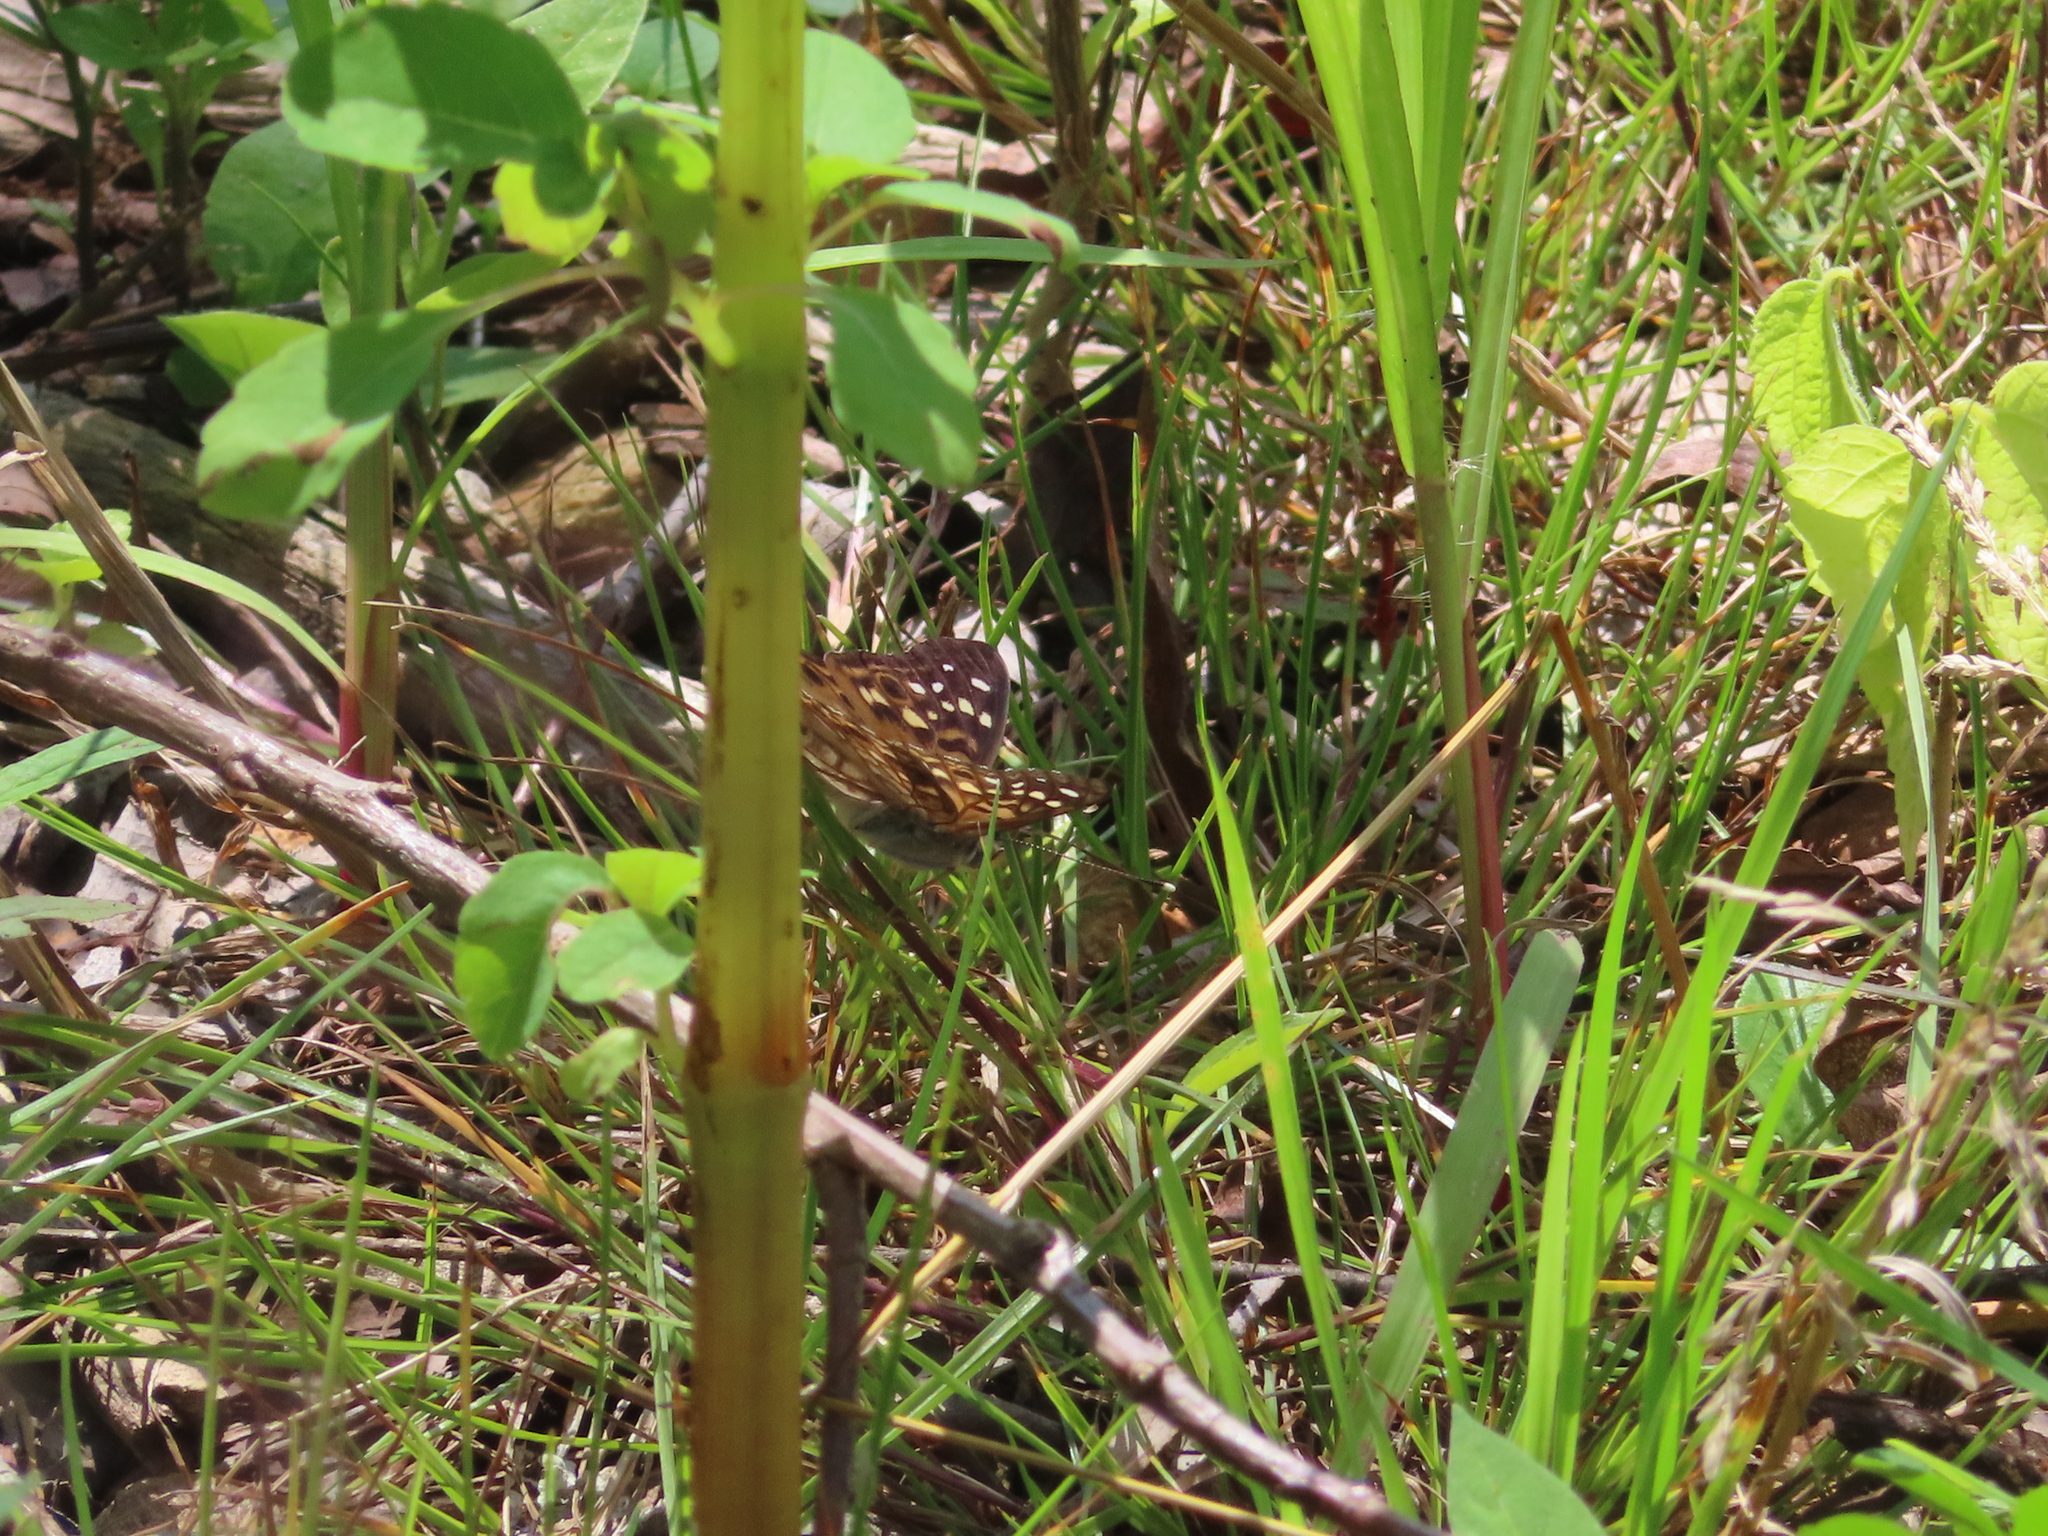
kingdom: Animalia
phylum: Arthropoda
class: Insecta
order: Lepidoptera
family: Nymphalidae
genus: Asterocampa
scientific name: Asterocampa celtis
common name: Hackberry emperor
